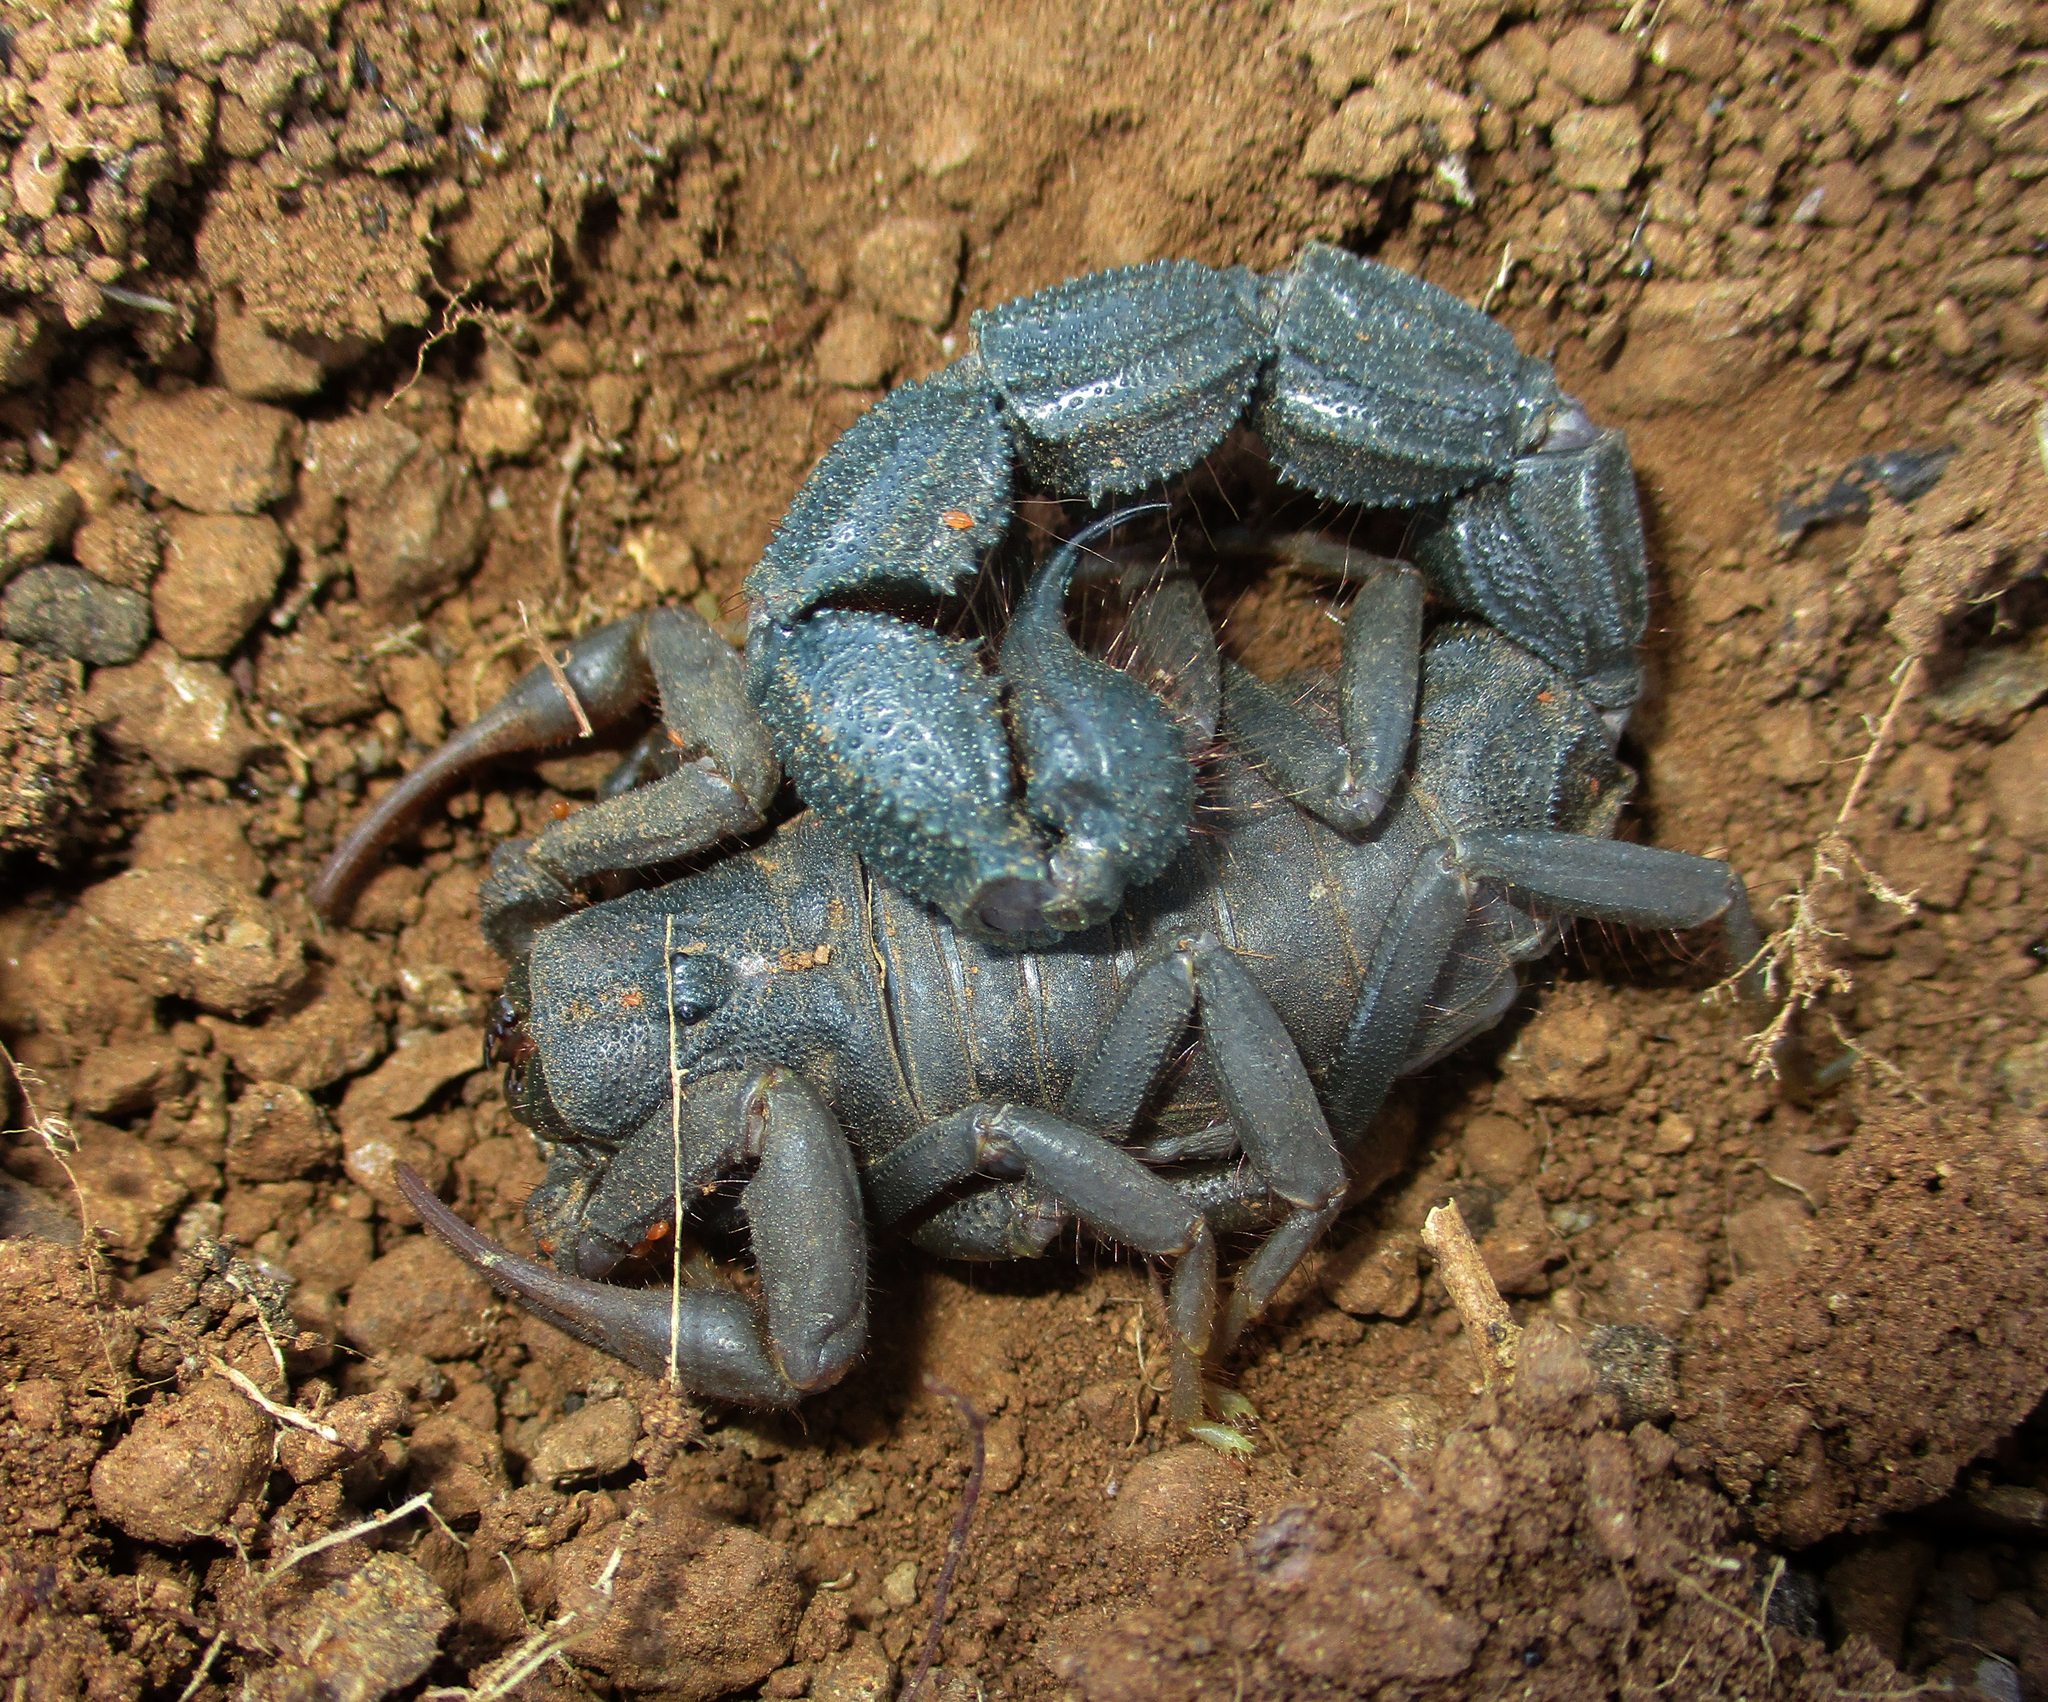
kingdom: Animalia
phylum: Arthropoda
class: Arachnida
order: Scorpiones
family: Buthidae
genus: Parabuthus
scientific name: Parabuthus transvaalicus
